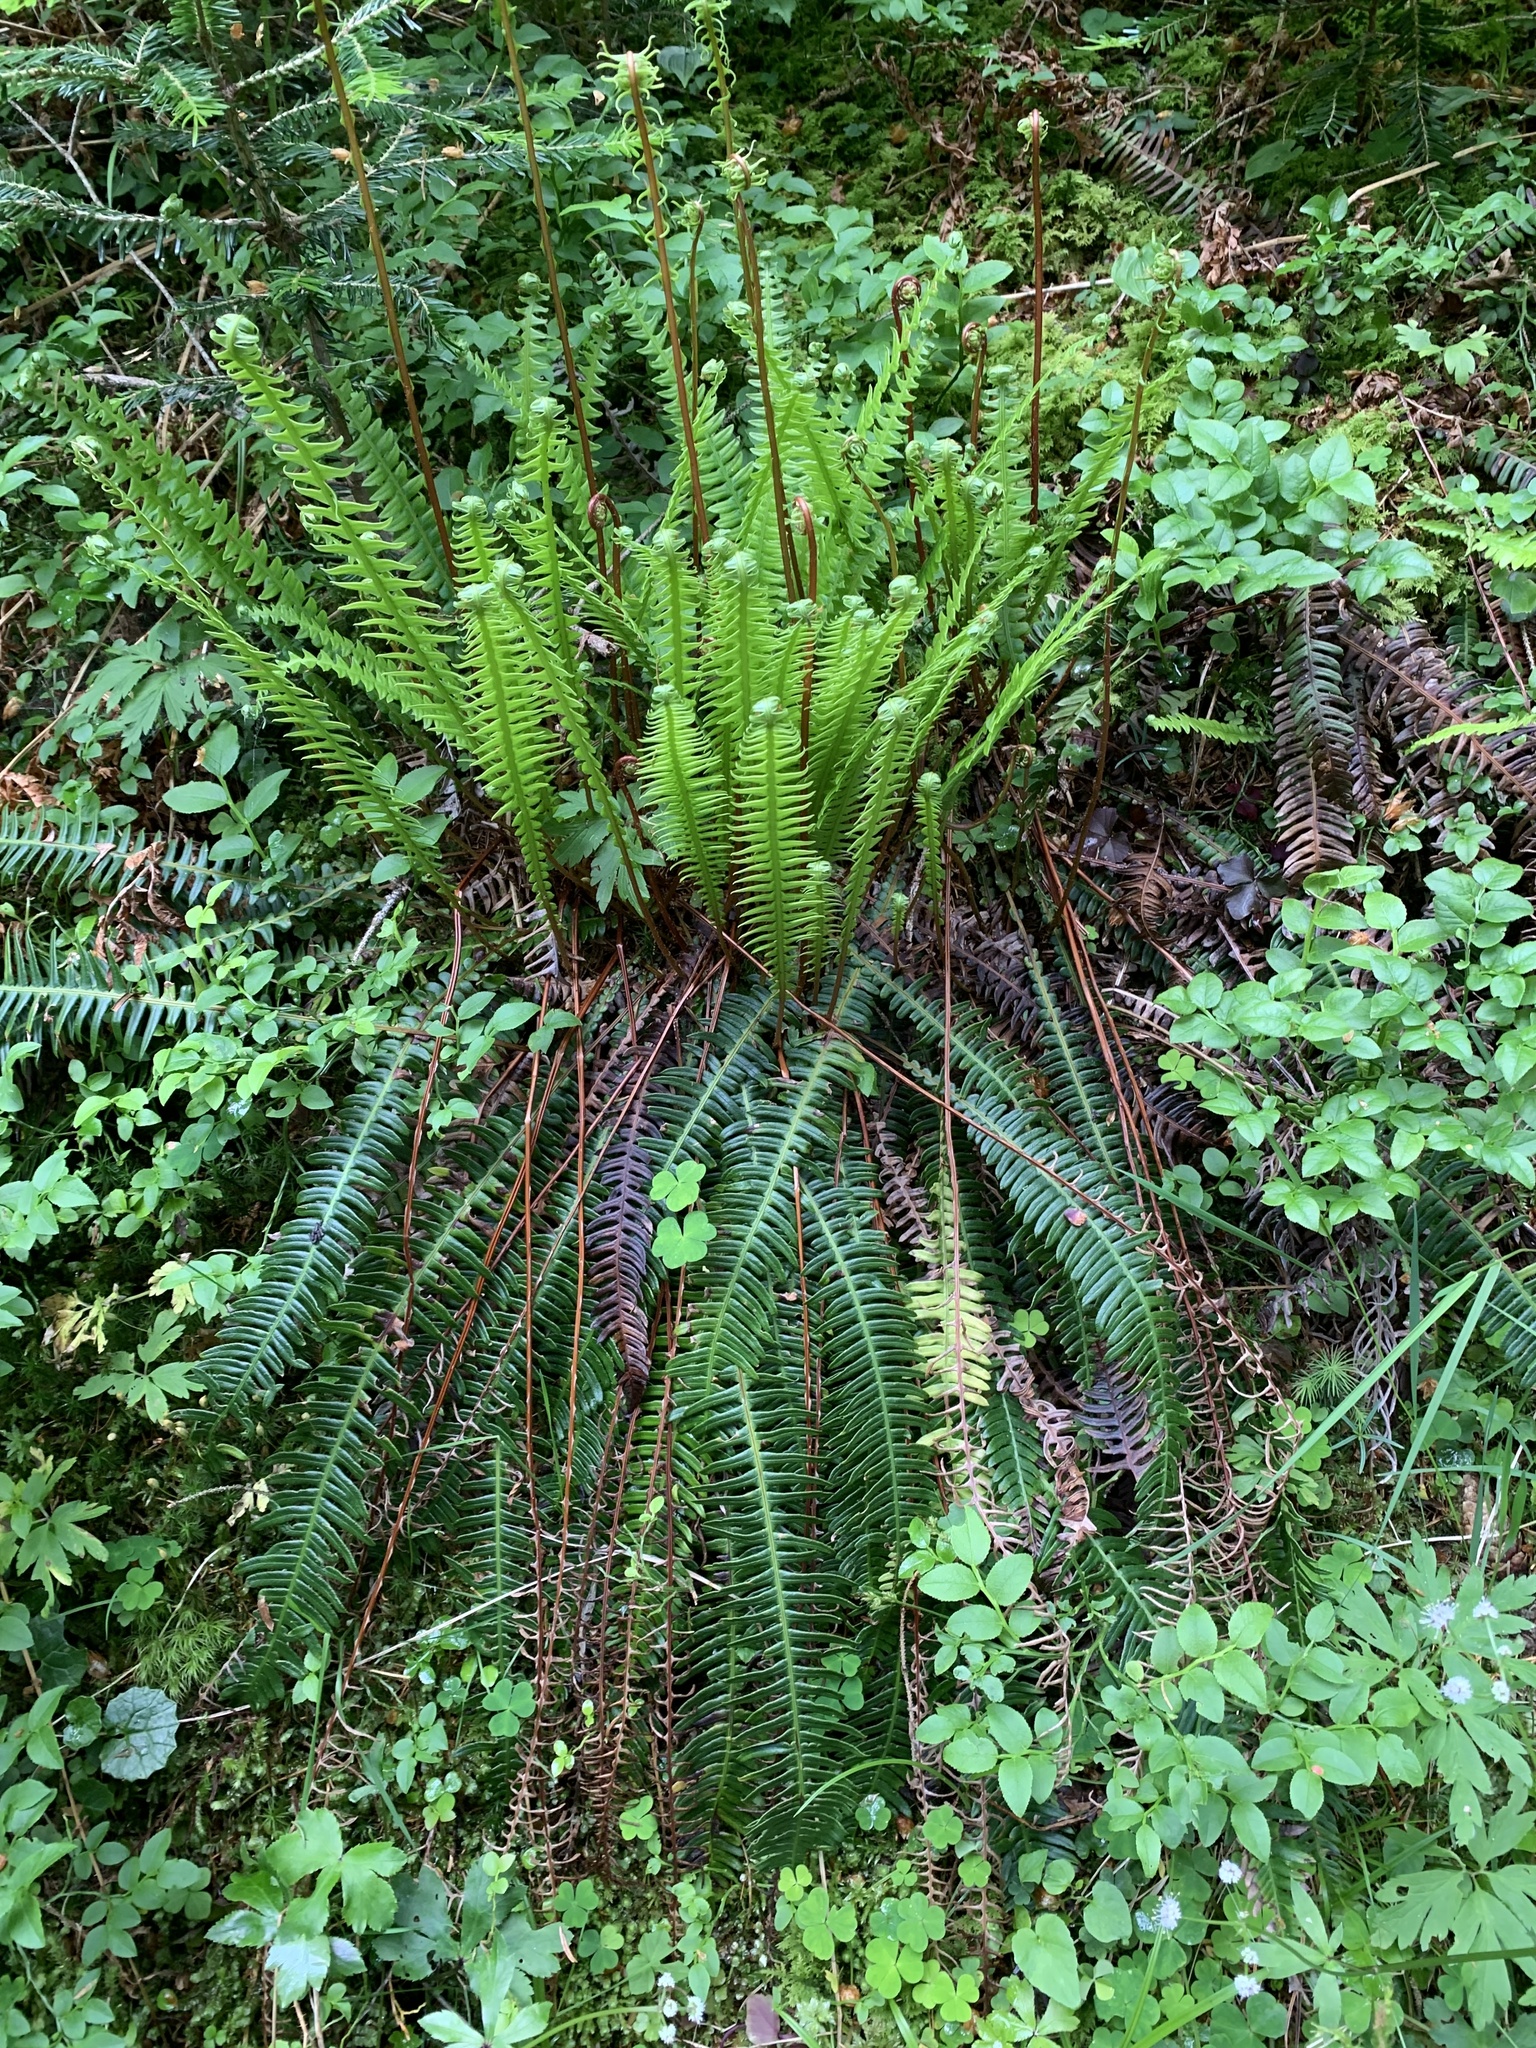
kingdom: Plantae
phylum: Tracheophyta
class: Polypodiopsida
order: Polypodiales
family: Blechnaceae
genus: Struthiopteris
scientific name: Struthiopteris spicant
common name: Deer fern
